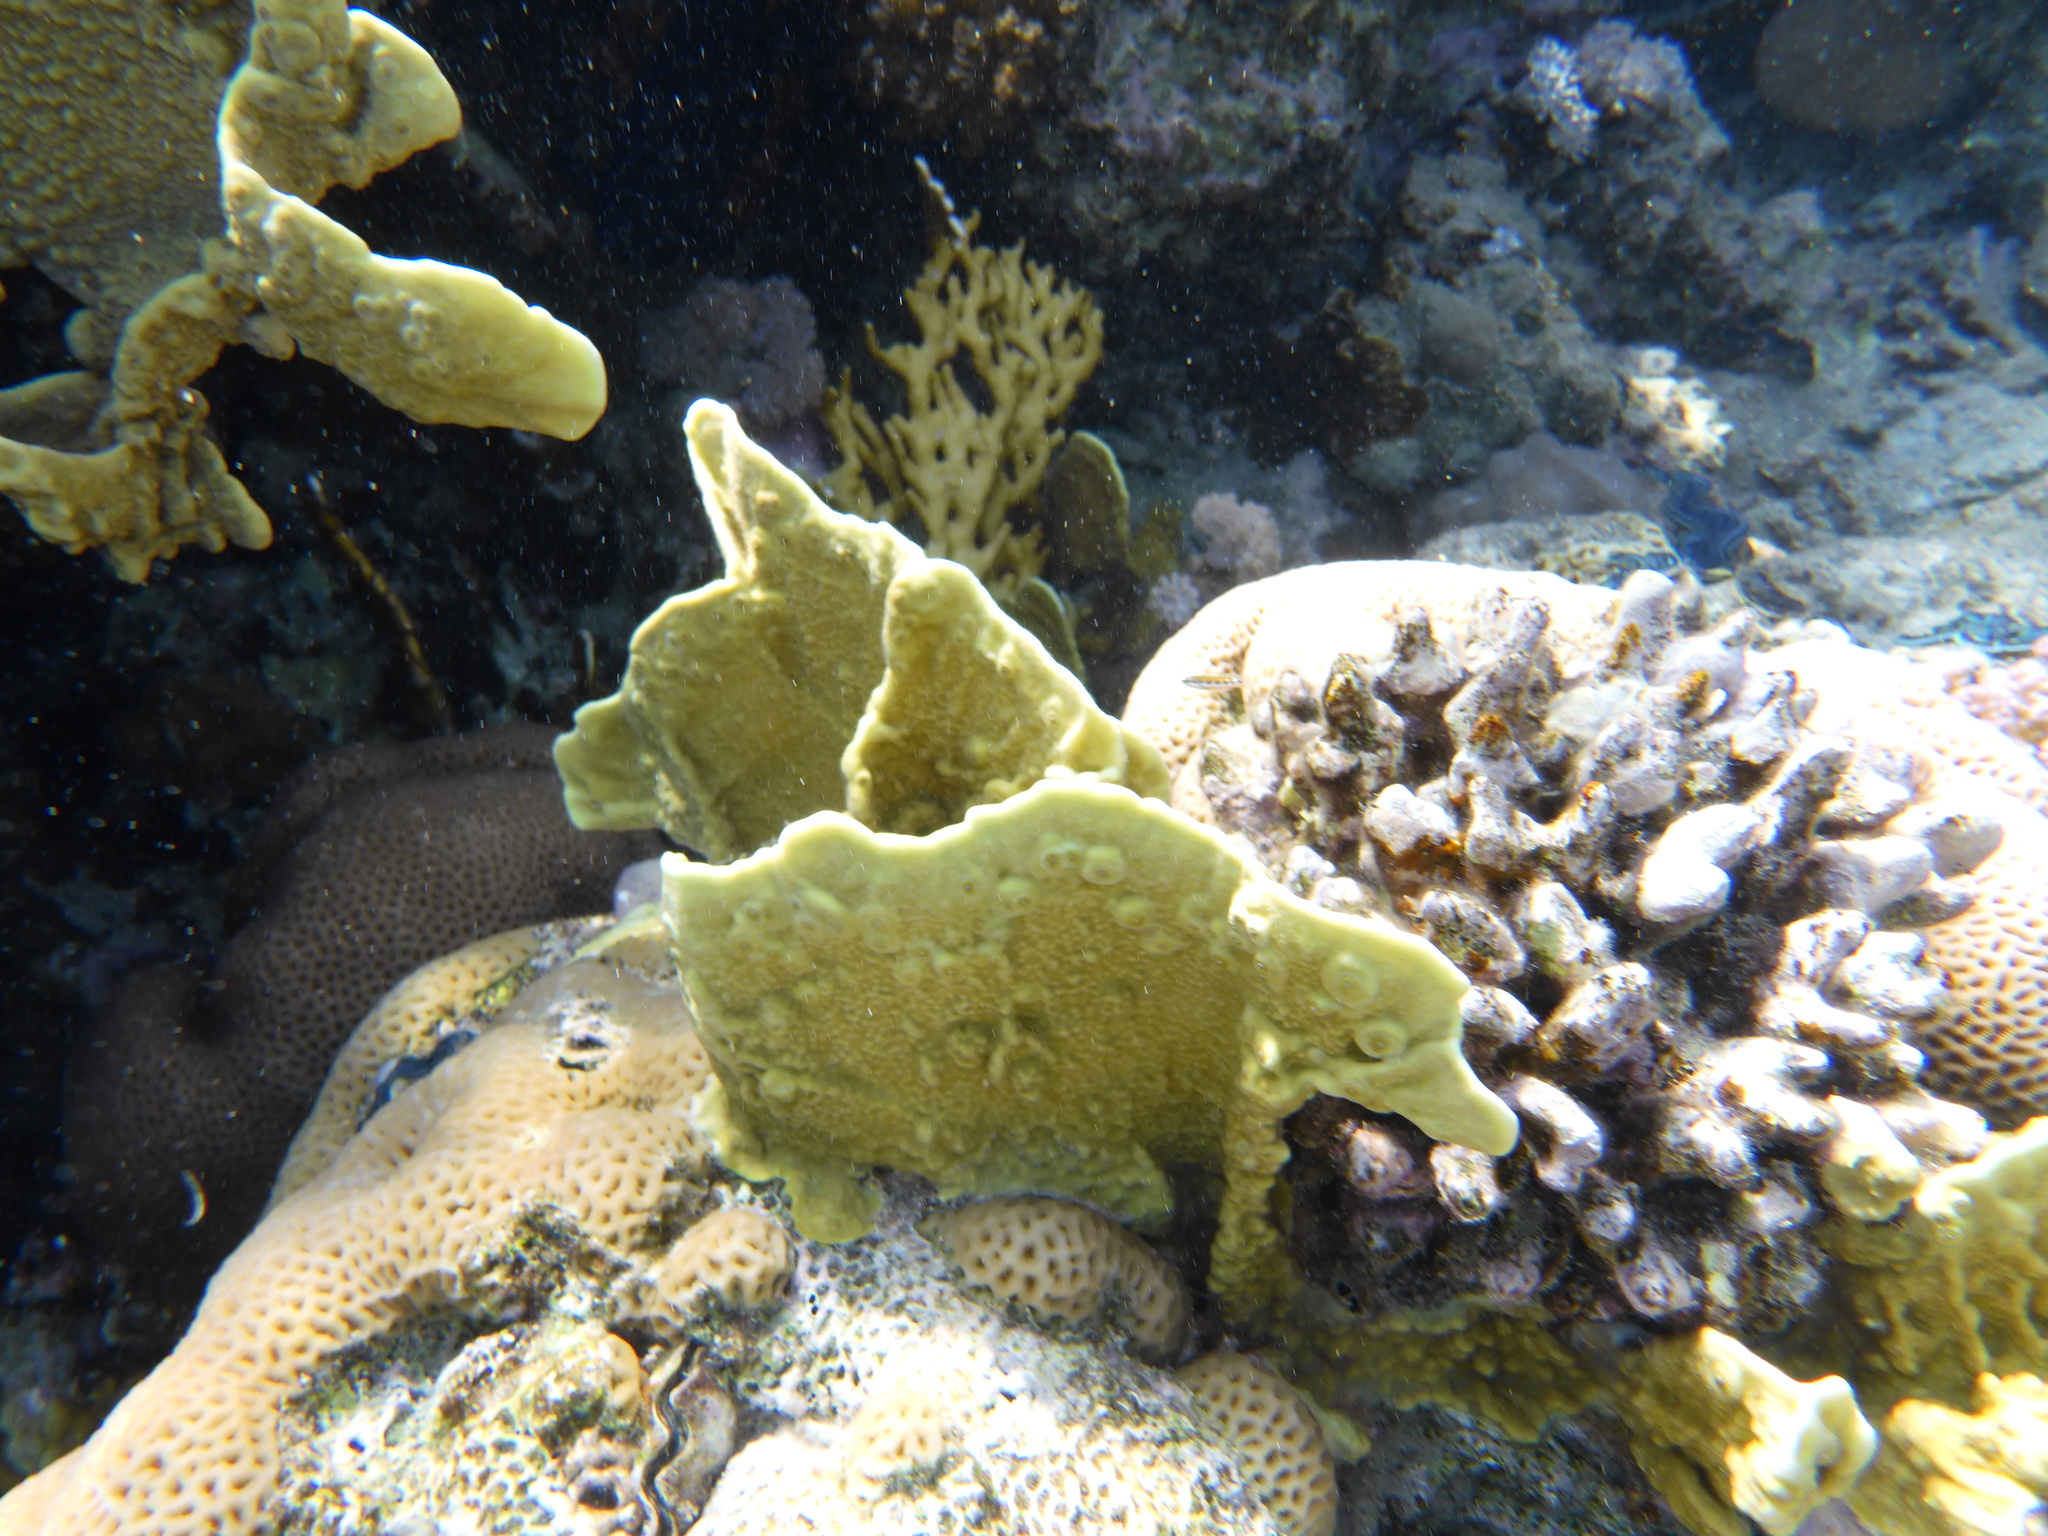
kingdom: Animalia
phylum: Cnidaria
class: Hydrozoa
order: Anthoathecata
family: Milleporidae
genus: Millepora
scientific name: Millepora platyphylla
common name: Sheet fire coral
